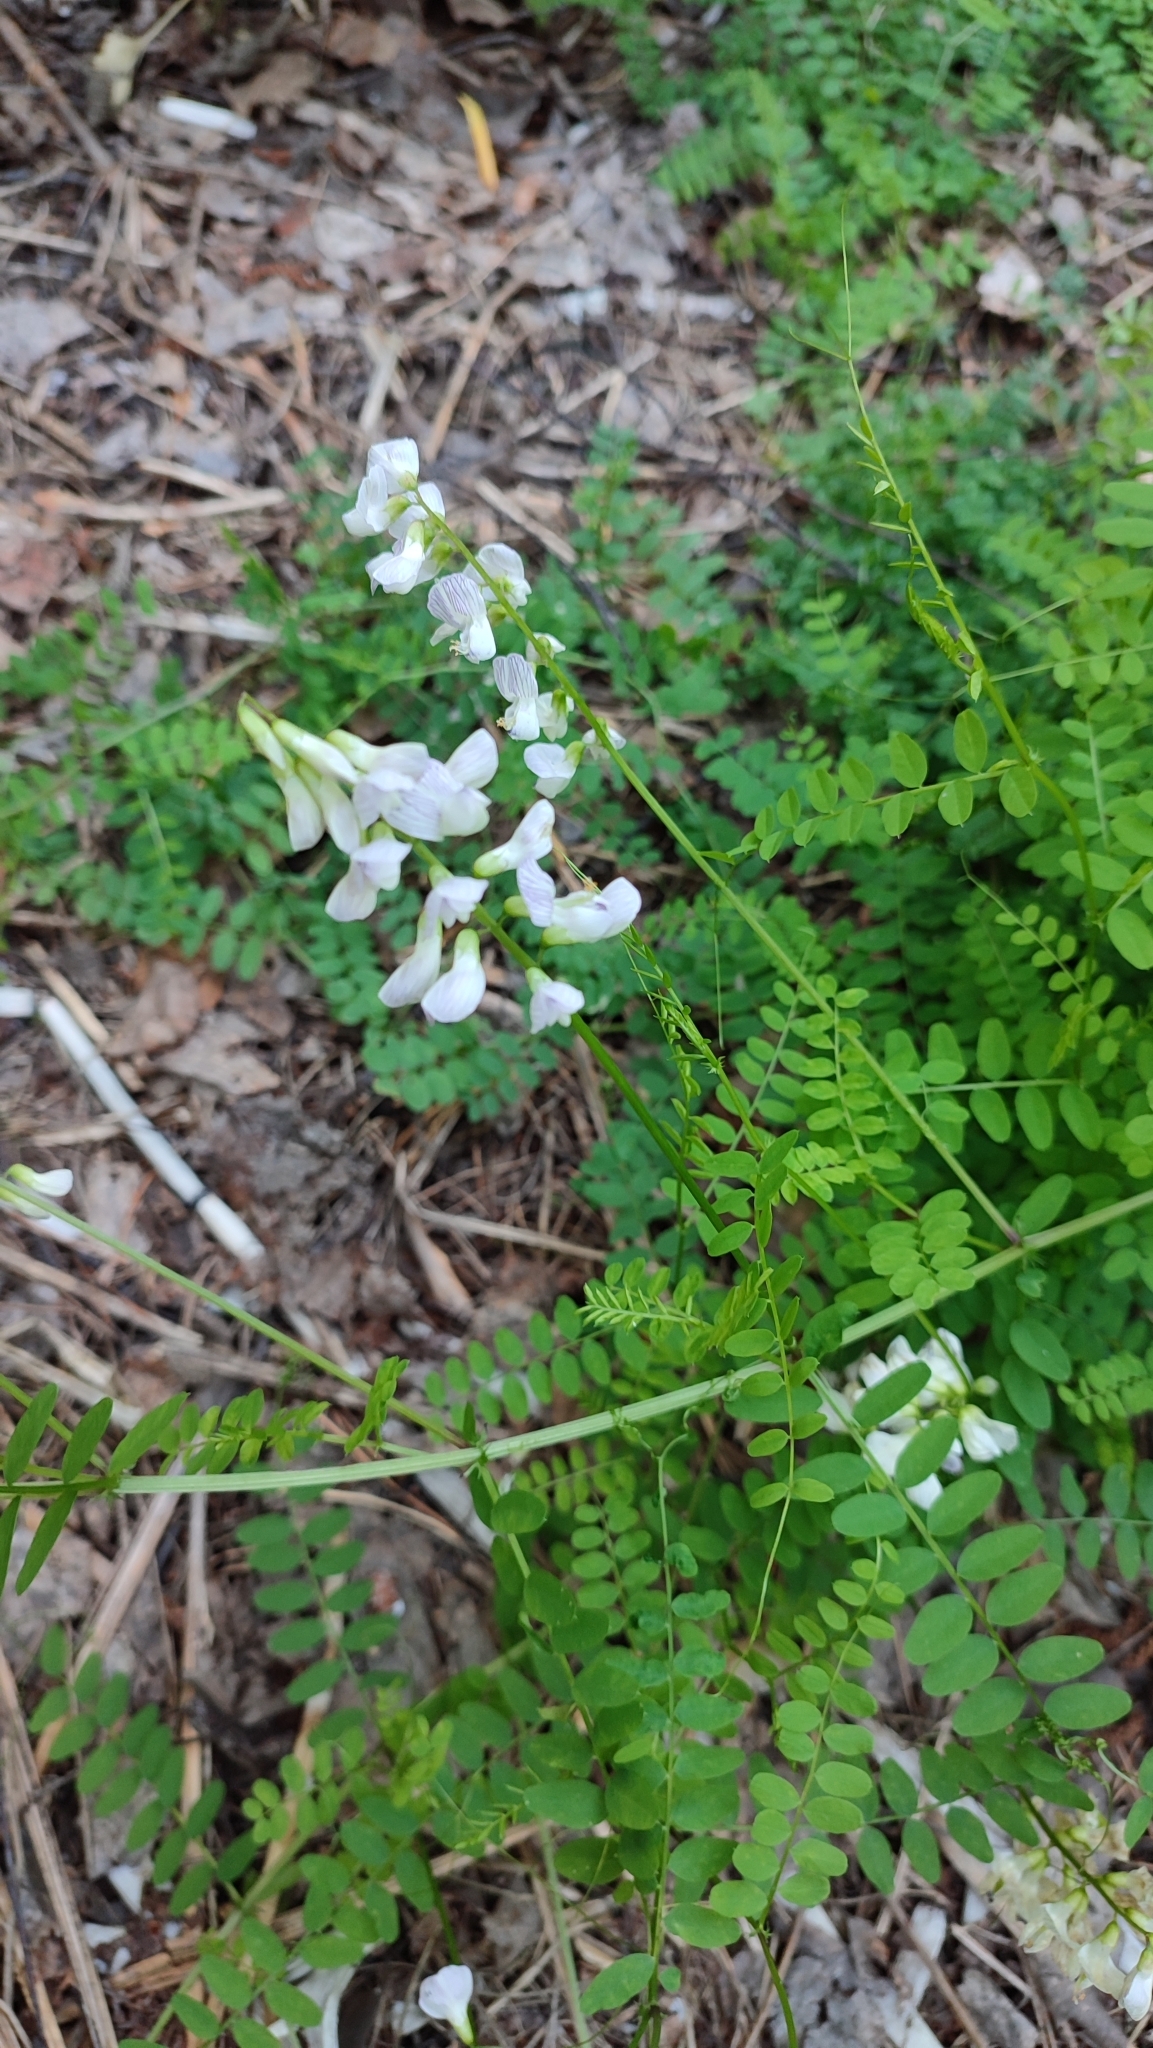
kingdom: Plantae
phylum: Tracheophyta
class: Magnoliopsida
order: Fabales
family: Fabaceae
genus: Vicia
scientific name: Vicia sylvatica
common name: Wood vetch
